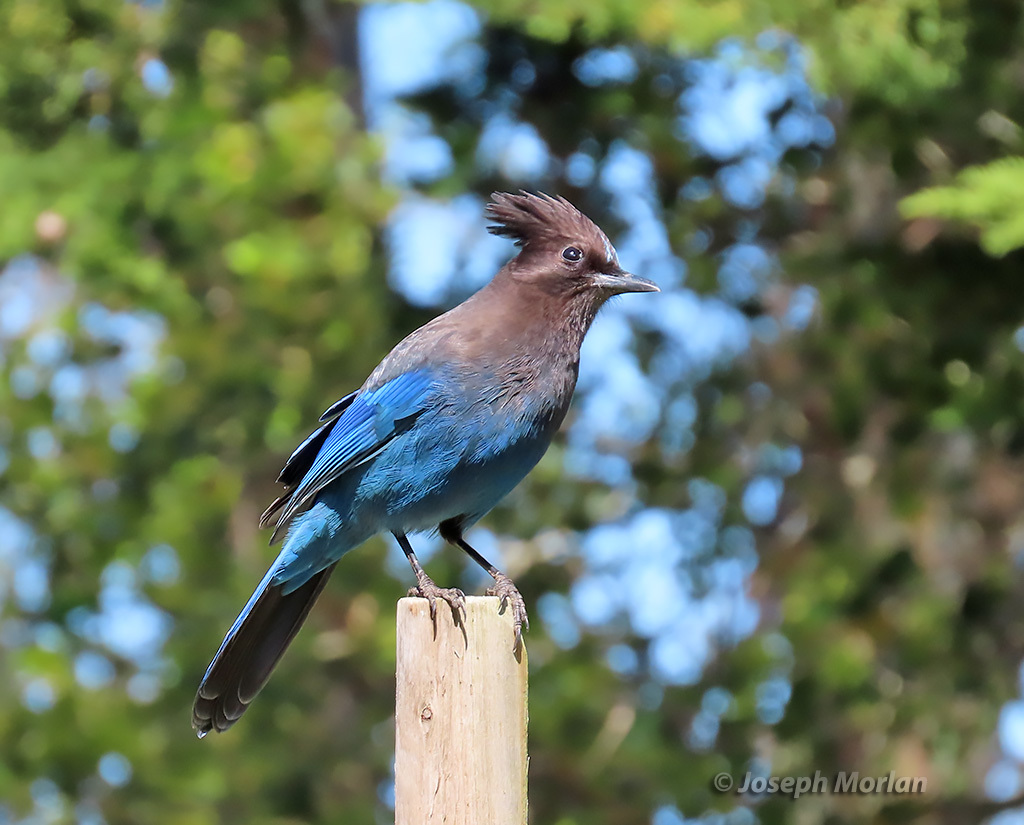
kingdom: Animalia
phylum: Chordata
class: Aves
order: Passeriformes
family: Corvidae
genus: Cyanocitta
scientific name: Cyanocitta stelleri
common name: Steller's jay
